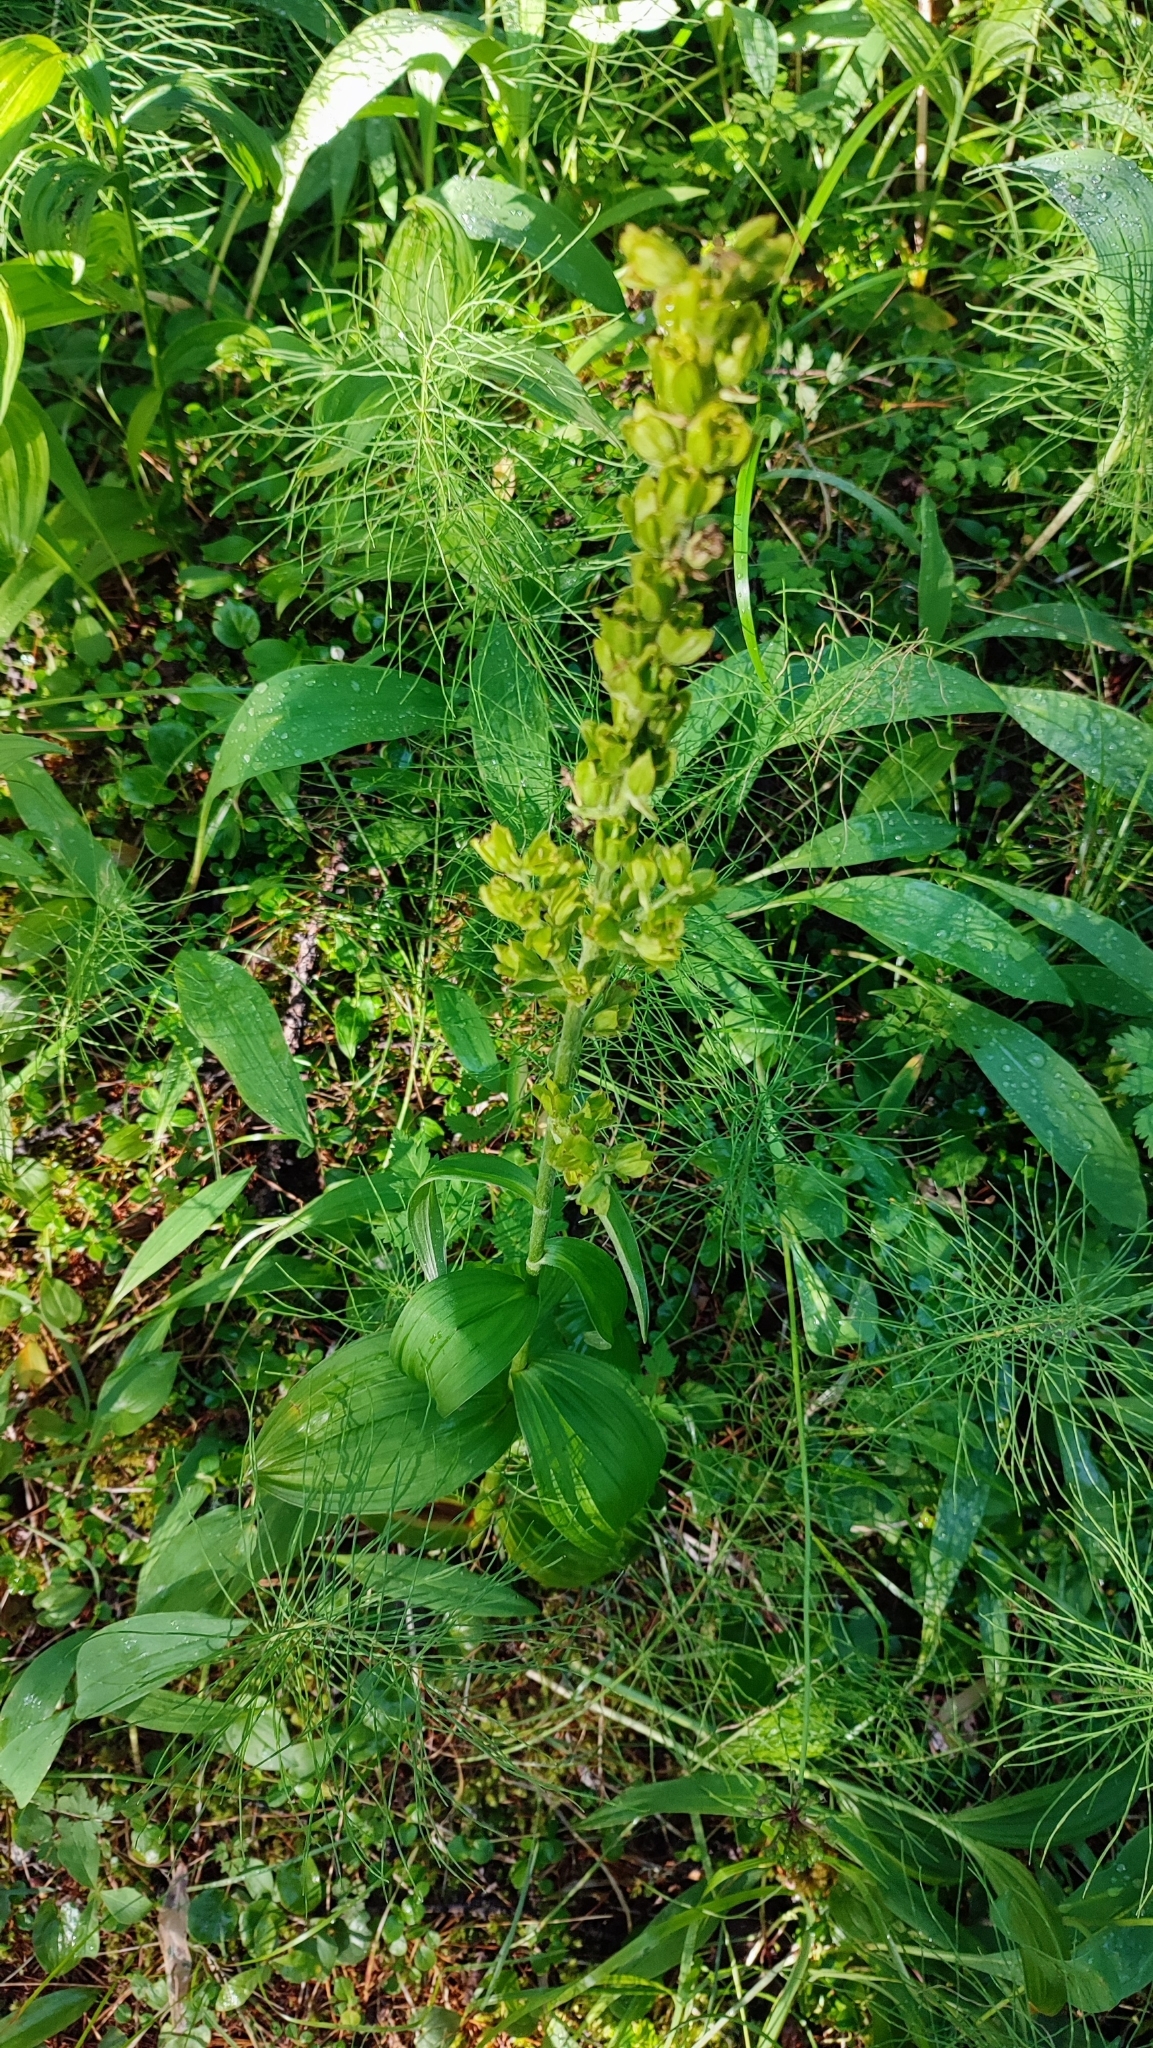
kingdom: Plantae
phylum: Tracheophyta
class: Liliopsida
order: Liliales
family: Melanthiaceae
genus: Veratrum
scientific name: Veratrum lobelianum
